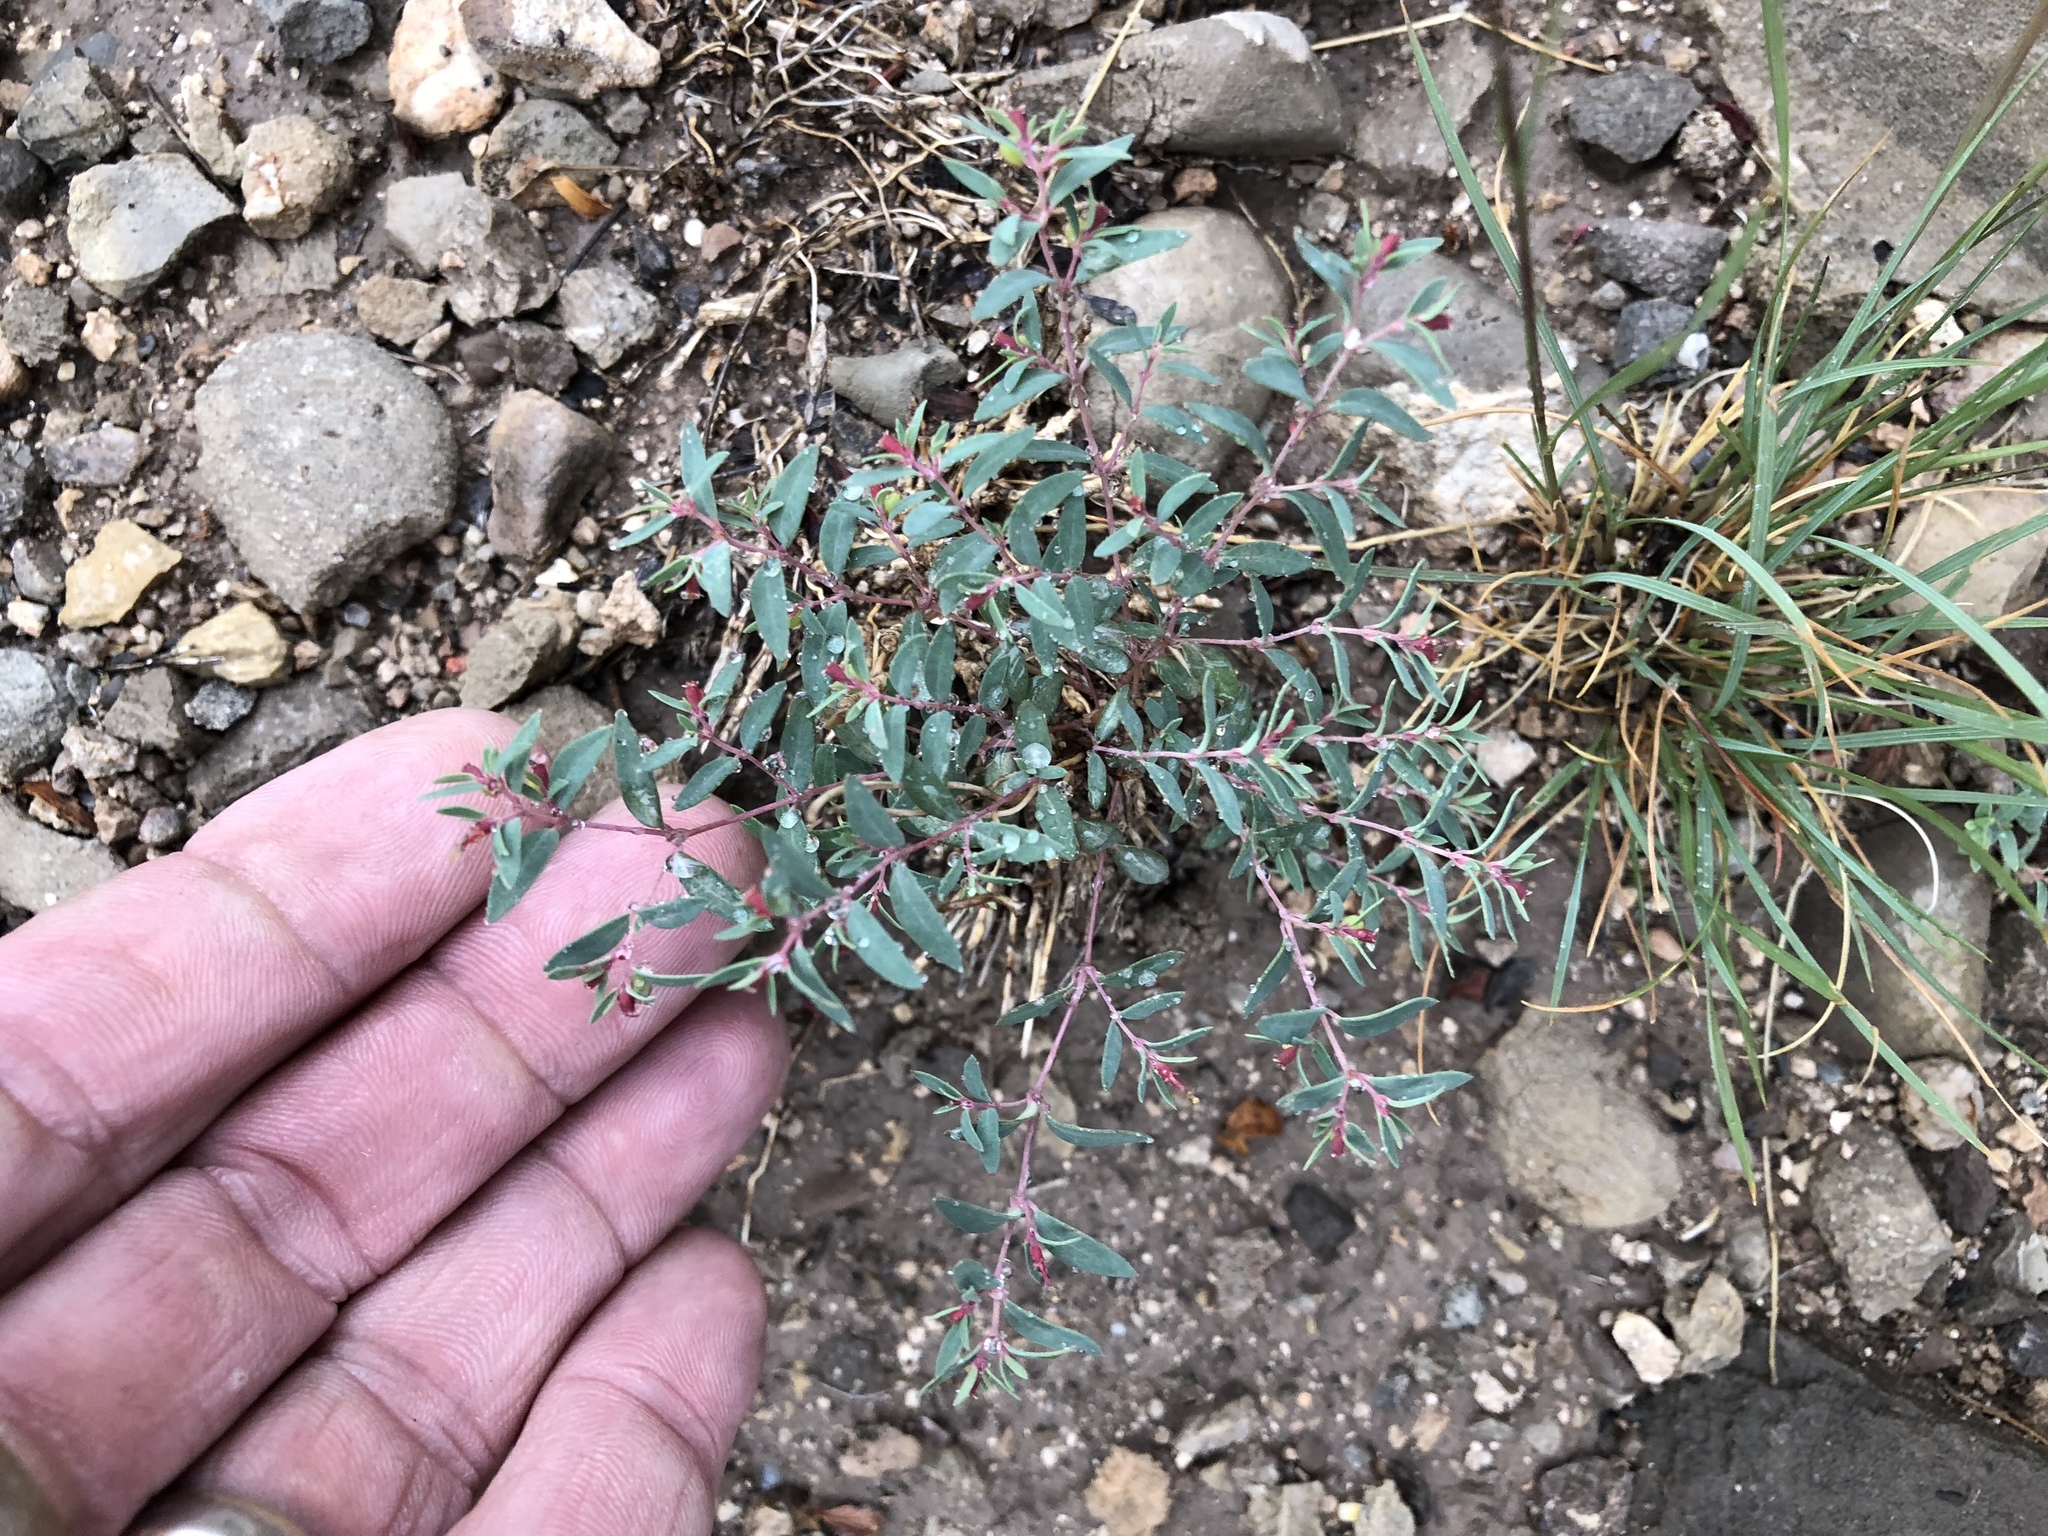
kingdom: Plantae
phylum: Tracheophyta
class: Magnoliopsida
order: Malpighiales
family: Euphorbiaceae
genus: Euphorbia
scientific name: Euphorbia chaetocalyx
